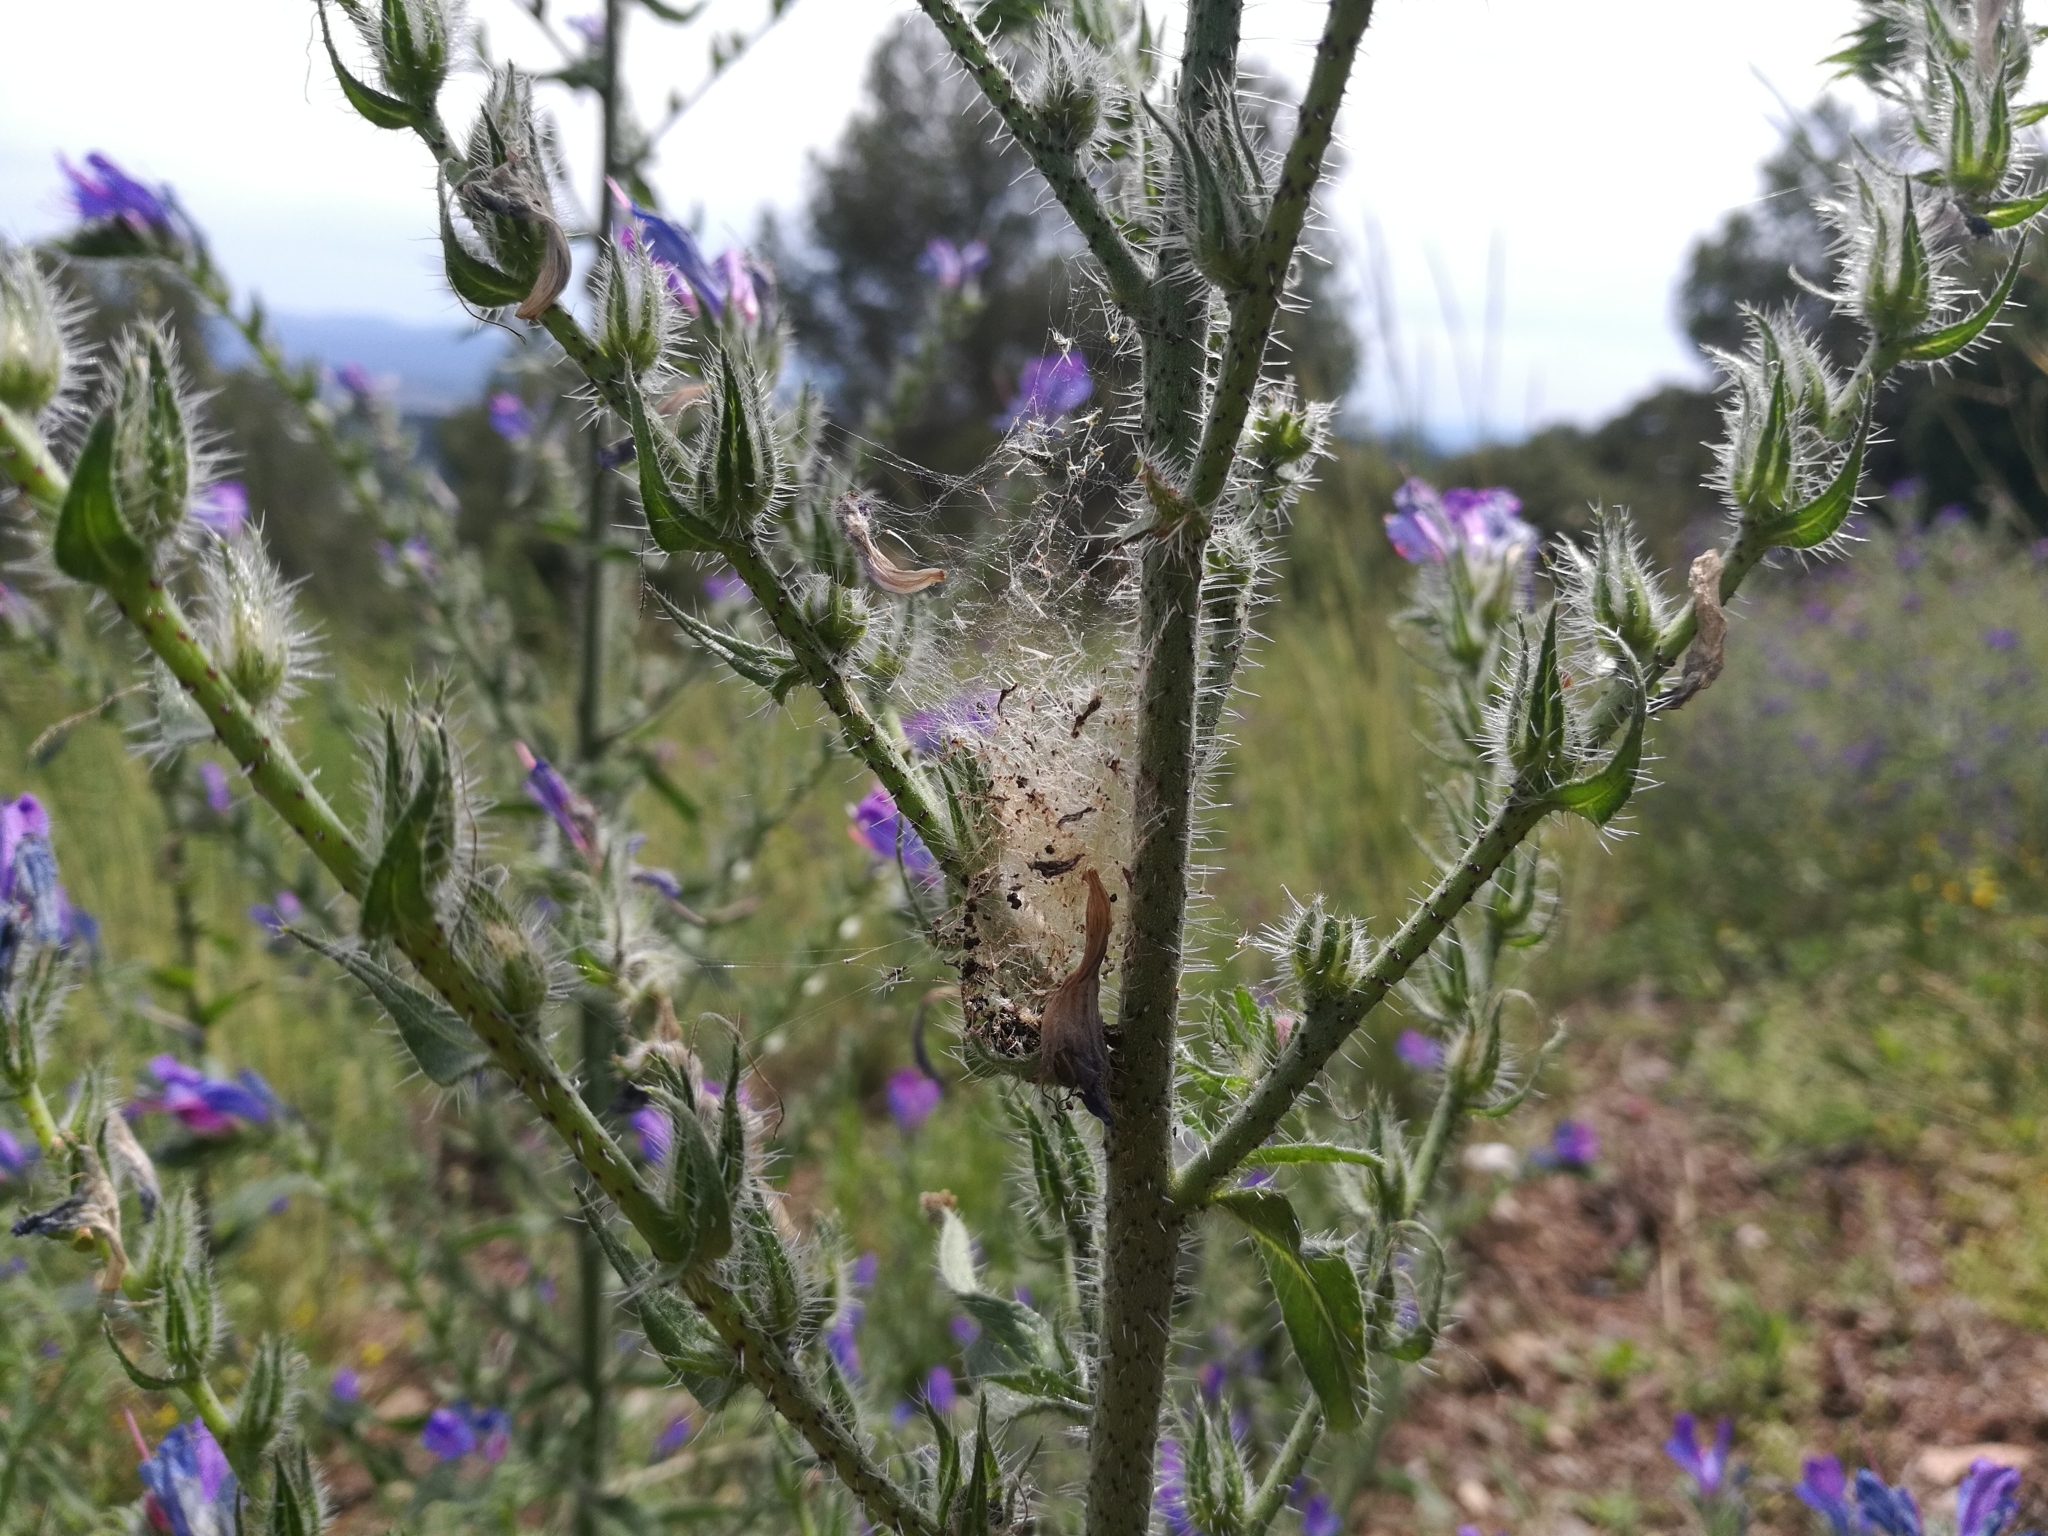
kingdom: Animalia
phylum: Arthropoda
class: Insecta
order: Lepidoptera
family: Nymphalidae
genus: Vanessa
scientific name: Vanessa cardui
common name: Painted lady
